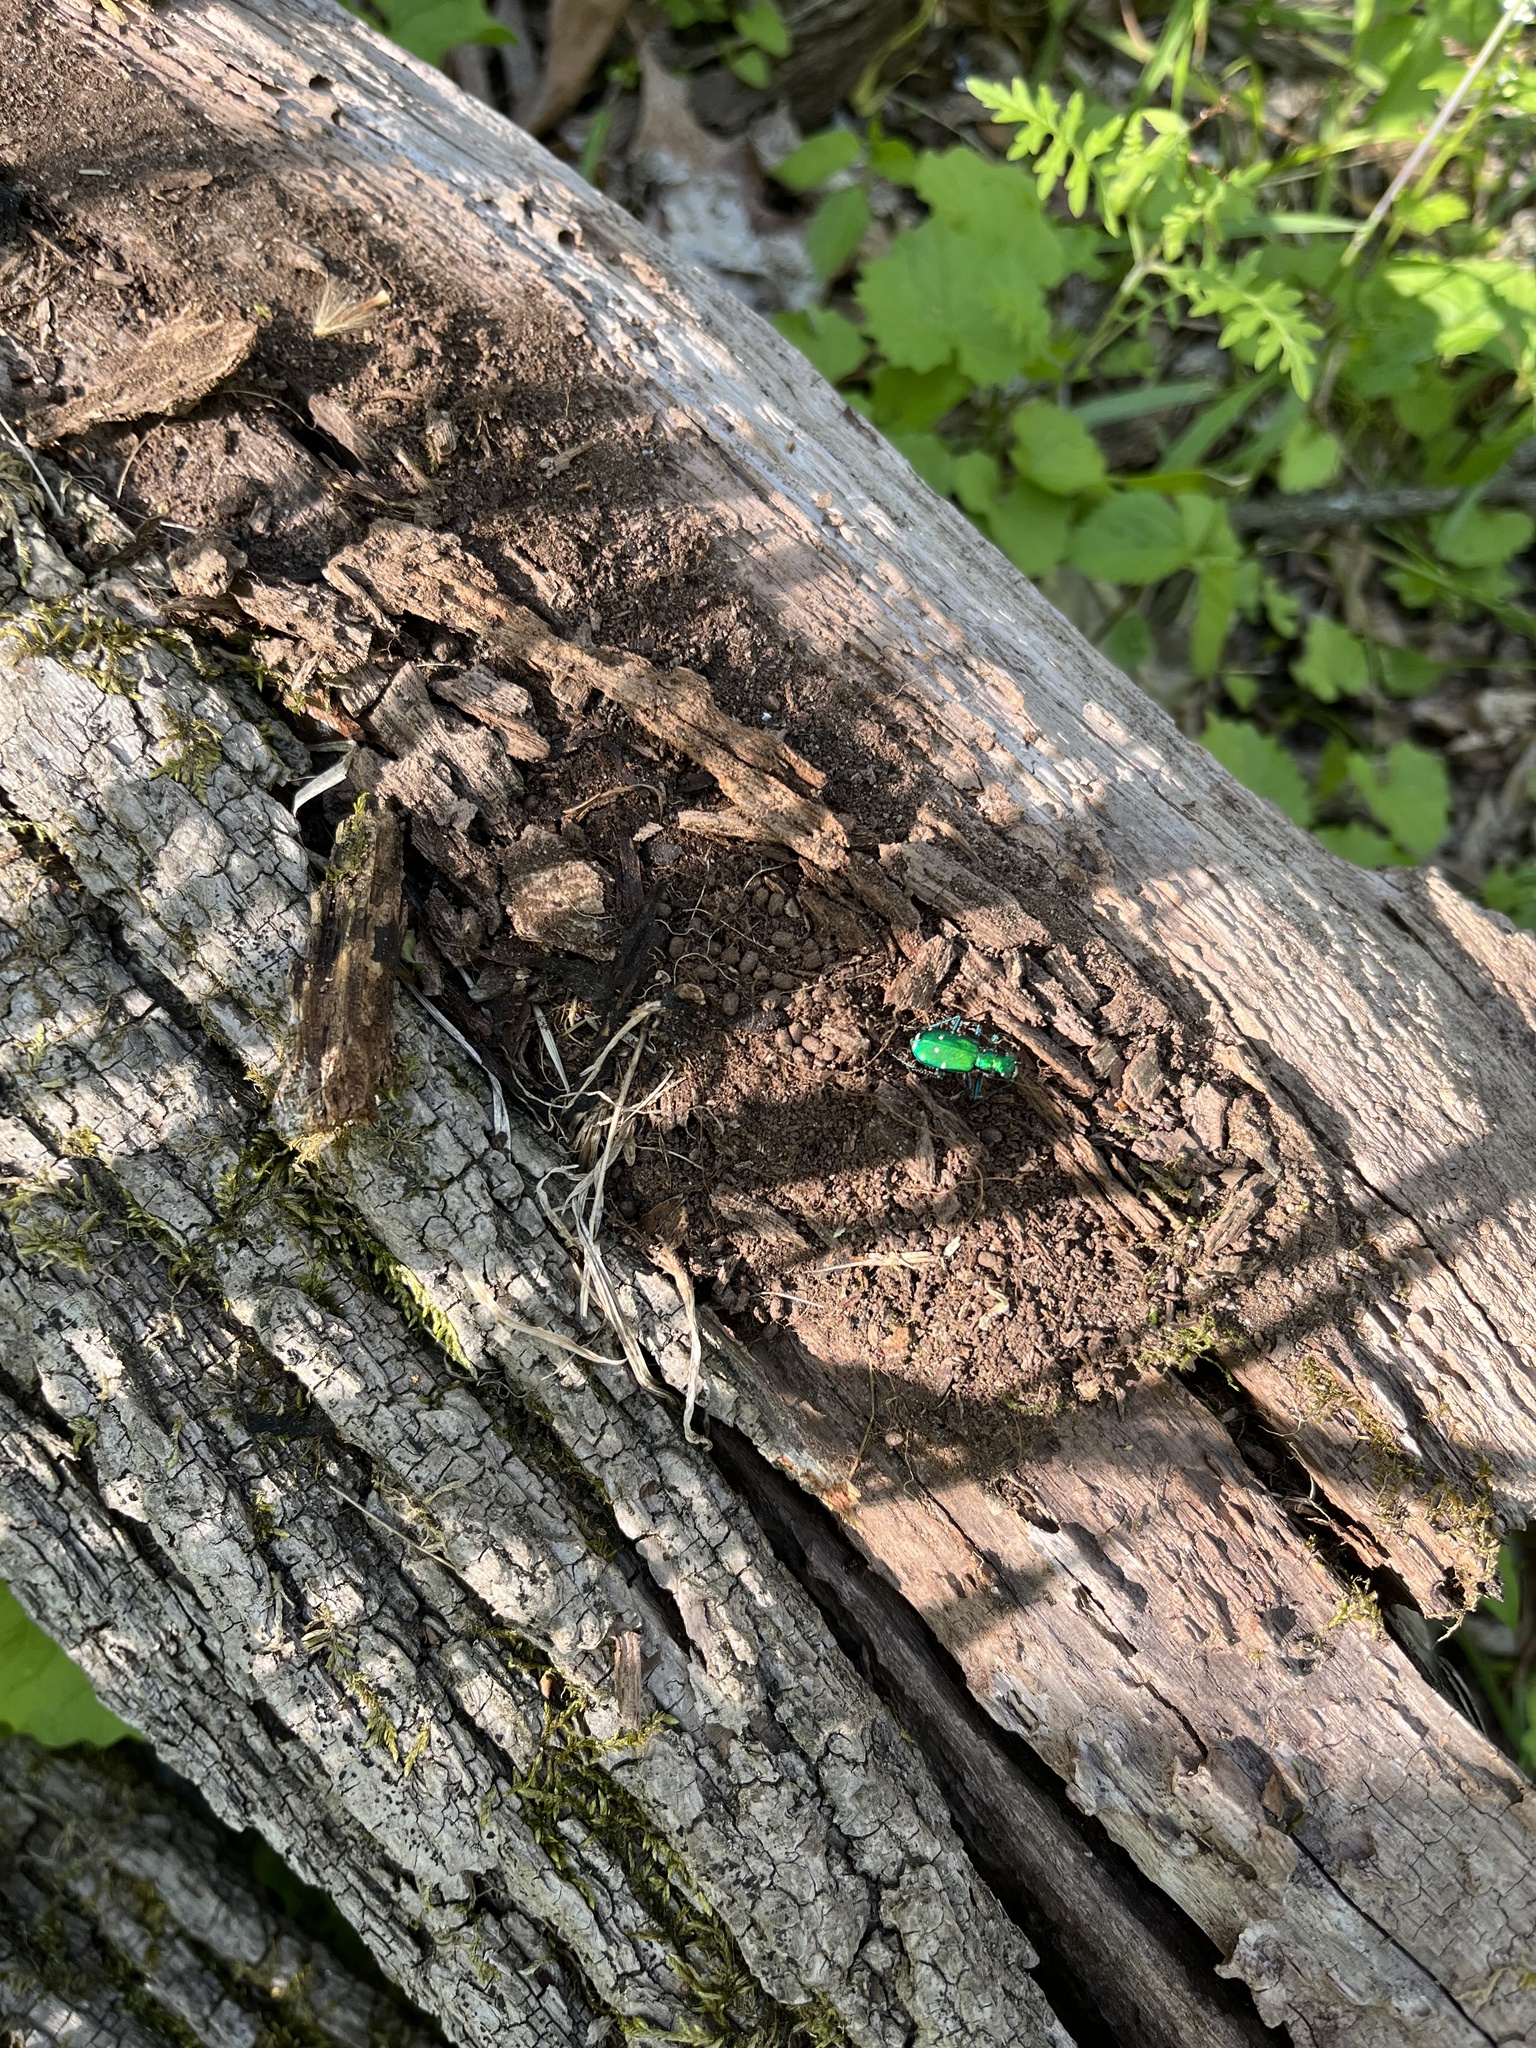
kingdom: Animalia
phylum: Arthropoda
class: Insecta
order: Coleoptera
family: Carabidae
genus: Cicindela
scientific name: Cicindela sexguttata
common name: Six-spotted tiger beetle
